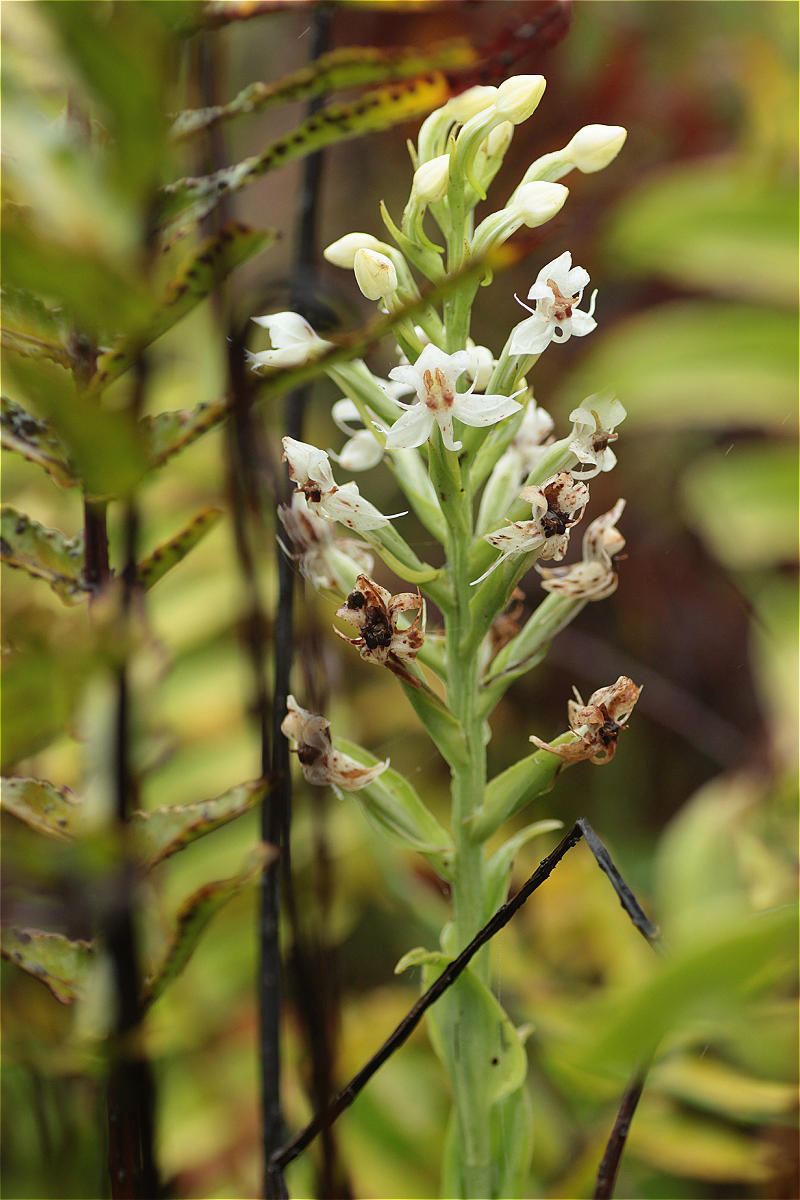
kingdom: Plantae
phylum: Tracheophyta
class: Liliopsida
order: Asparagales
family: Orchidaceae
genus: Habenaria
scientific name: Habenaria monorrhiza
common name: Tropical bog orchid
